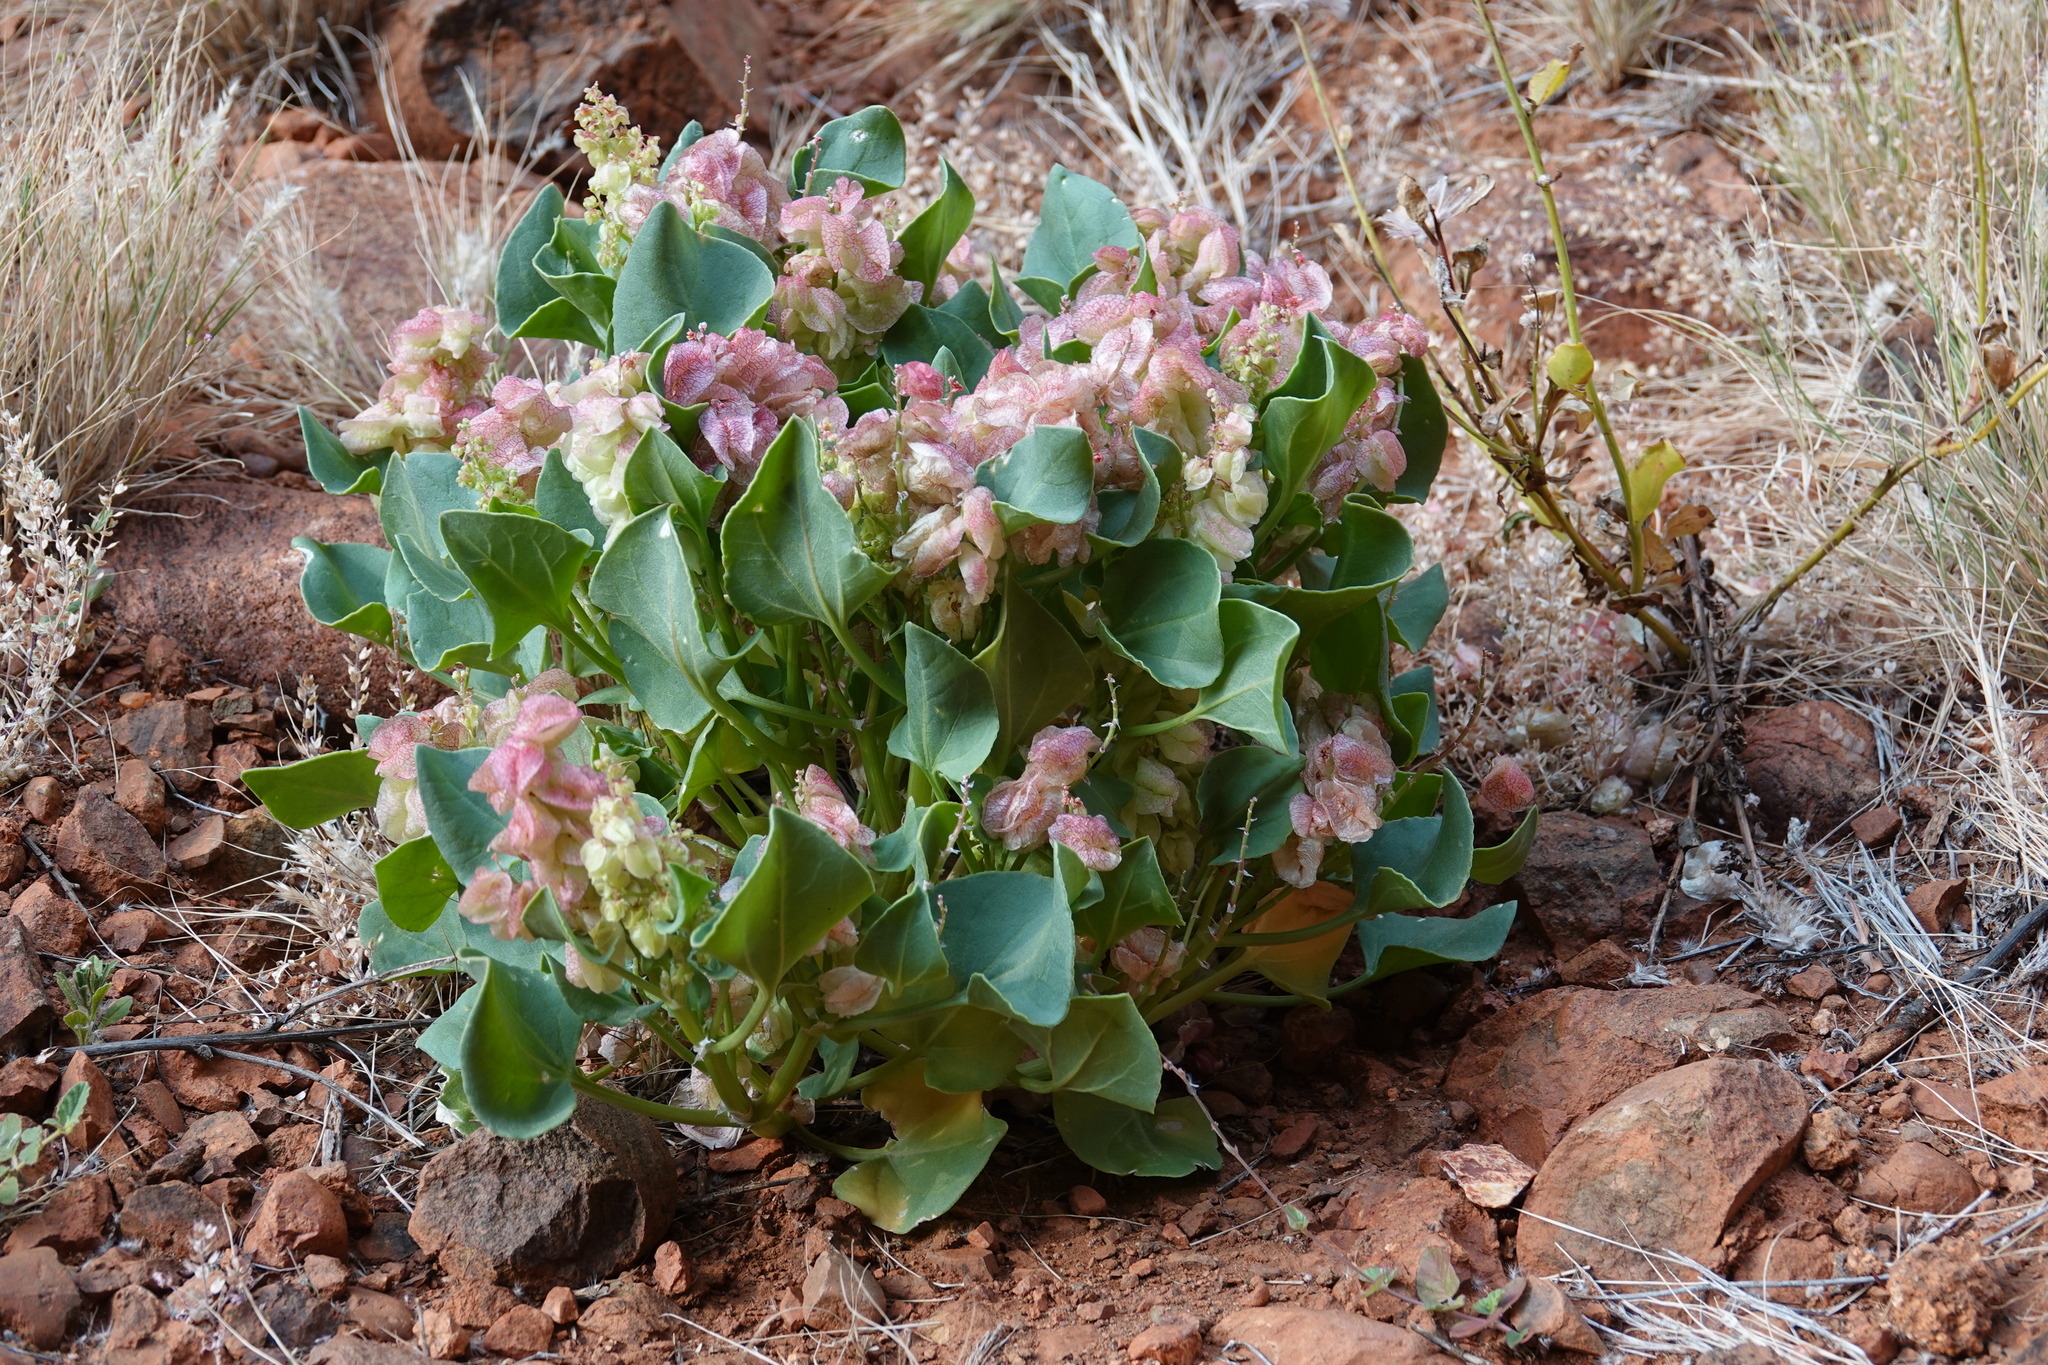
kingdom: Plantae
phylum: Tracheophyta
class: Magnoliopsida
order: Caryophyllales
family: Polygonaceae
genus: Rumex
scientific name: Rumex vesicarius
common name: Bladder dock
